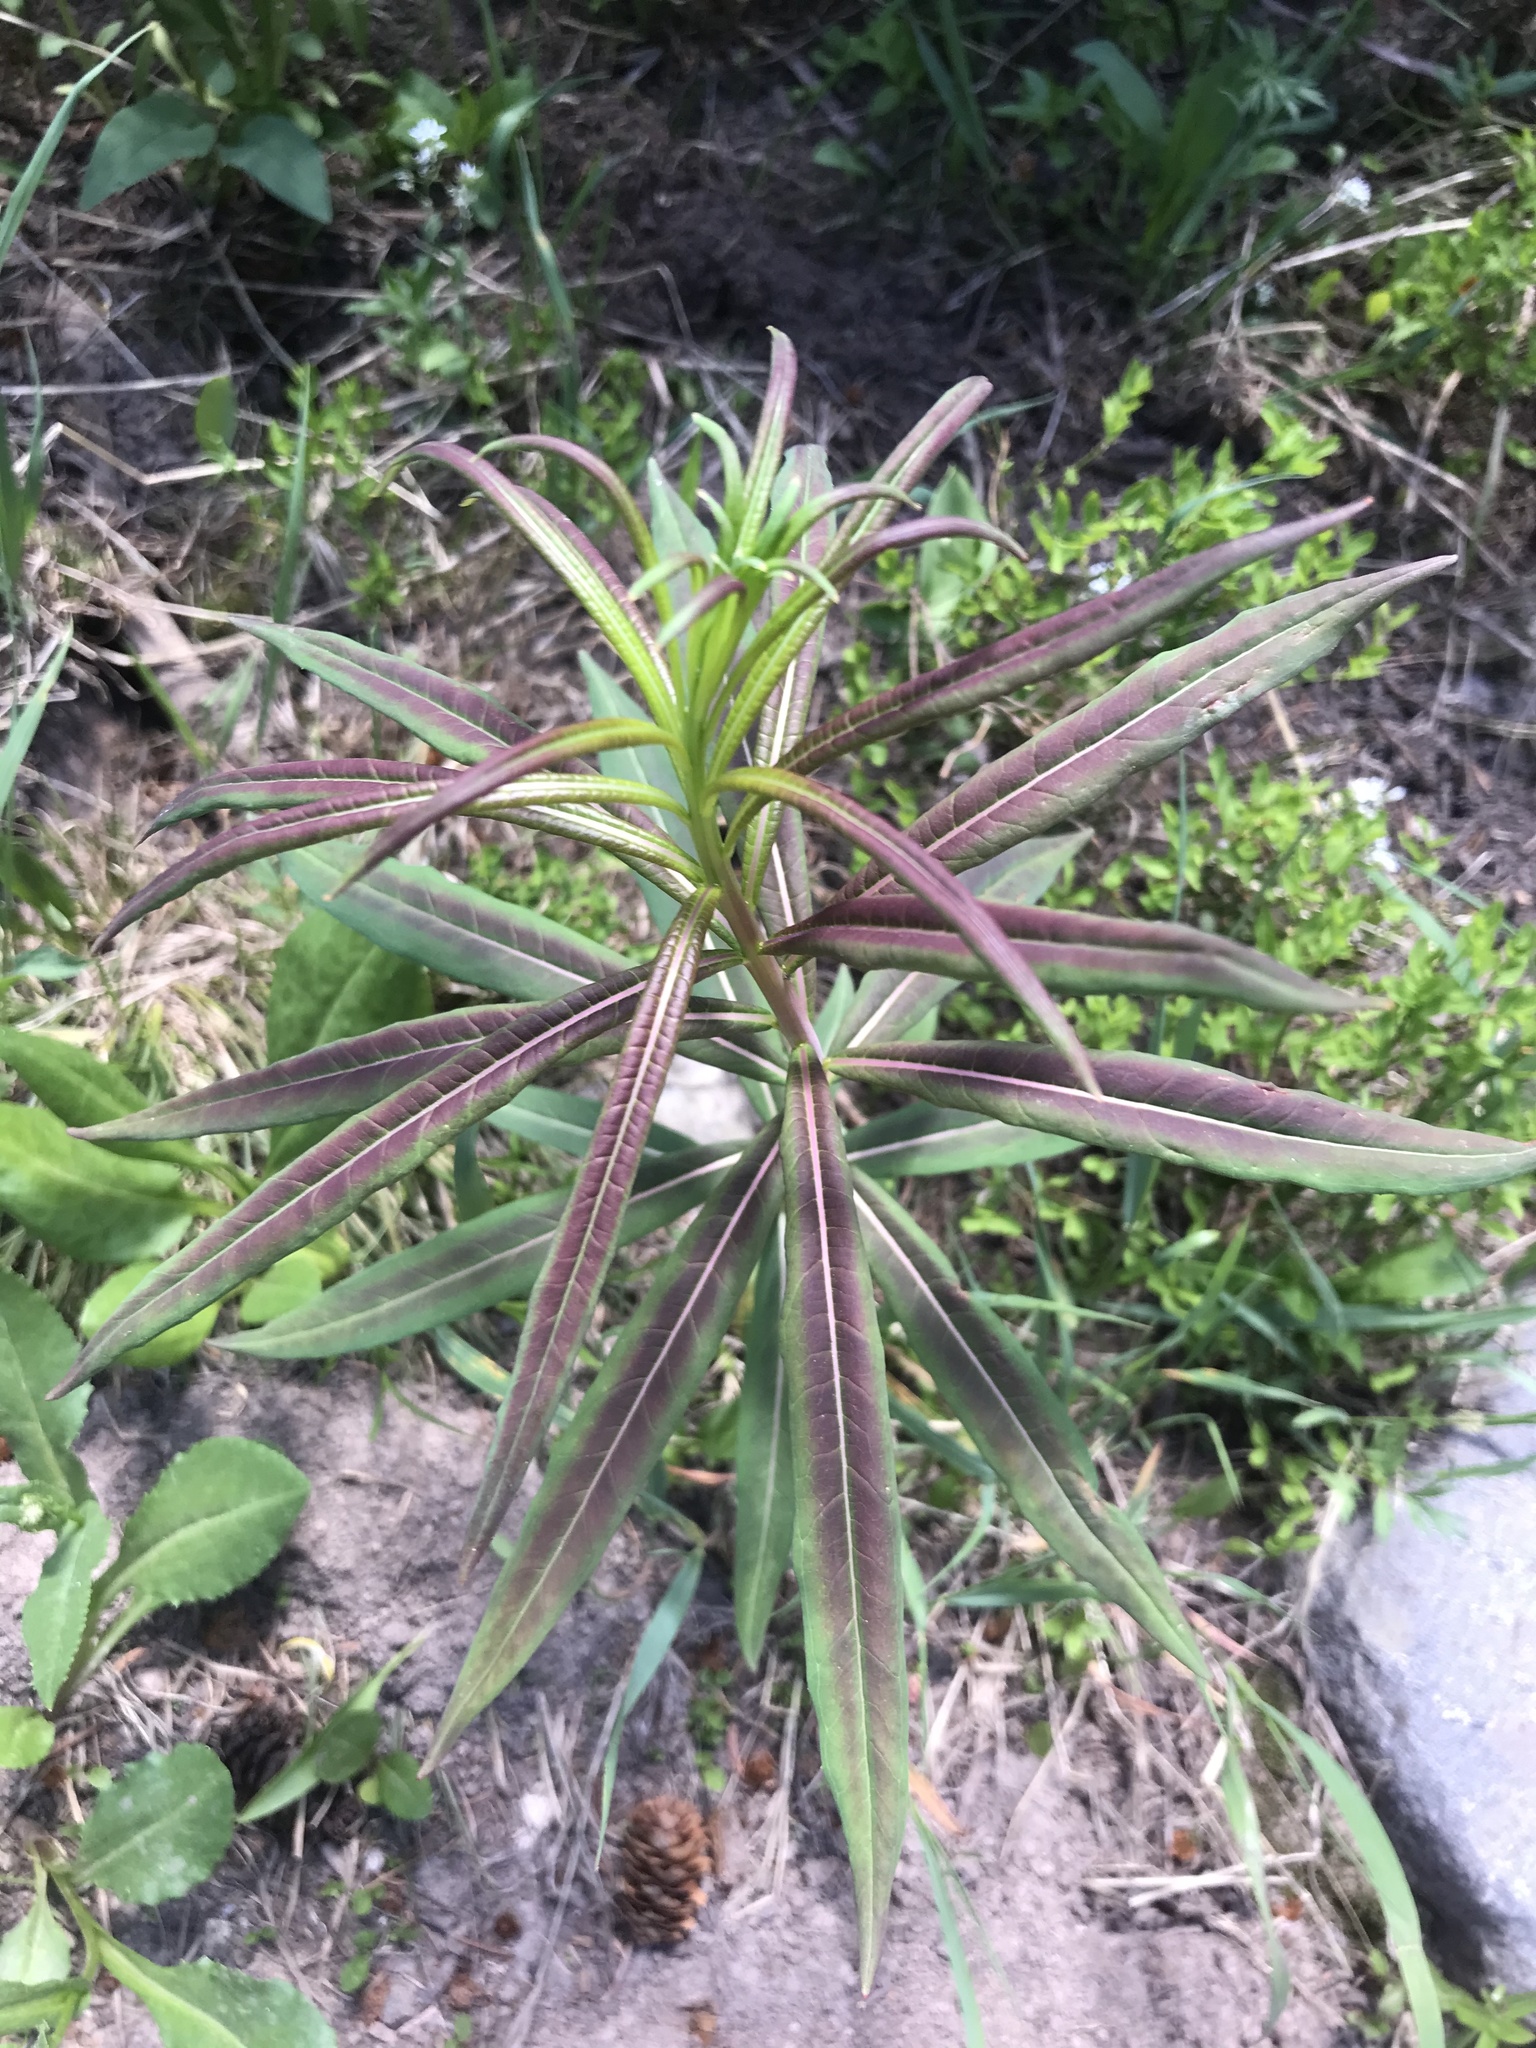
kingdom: Plantae
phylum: Tracheophyta
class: Magnoliopsida
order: Myrtales
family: Onagraceae
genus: Chamaenerion
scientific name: Chamaenerion angustifolium
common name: Fireweed
